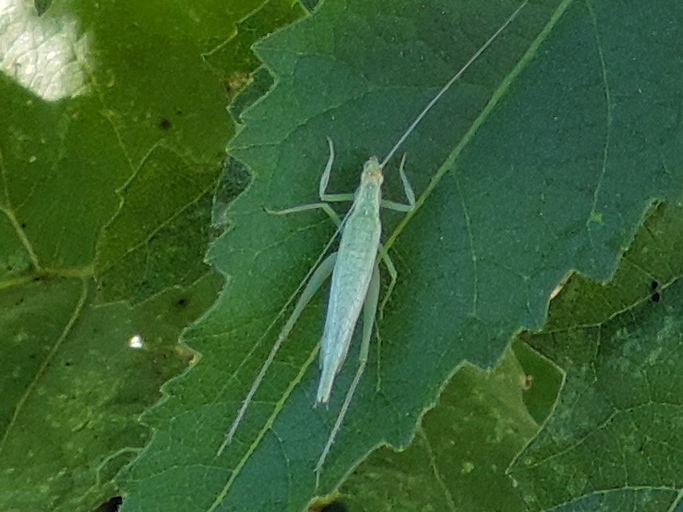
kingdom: Animalia
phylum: Arthropoda
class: Insecta
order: Orthoptera
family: Gryllidae
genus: Oecanthus
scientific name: Oecanthus
